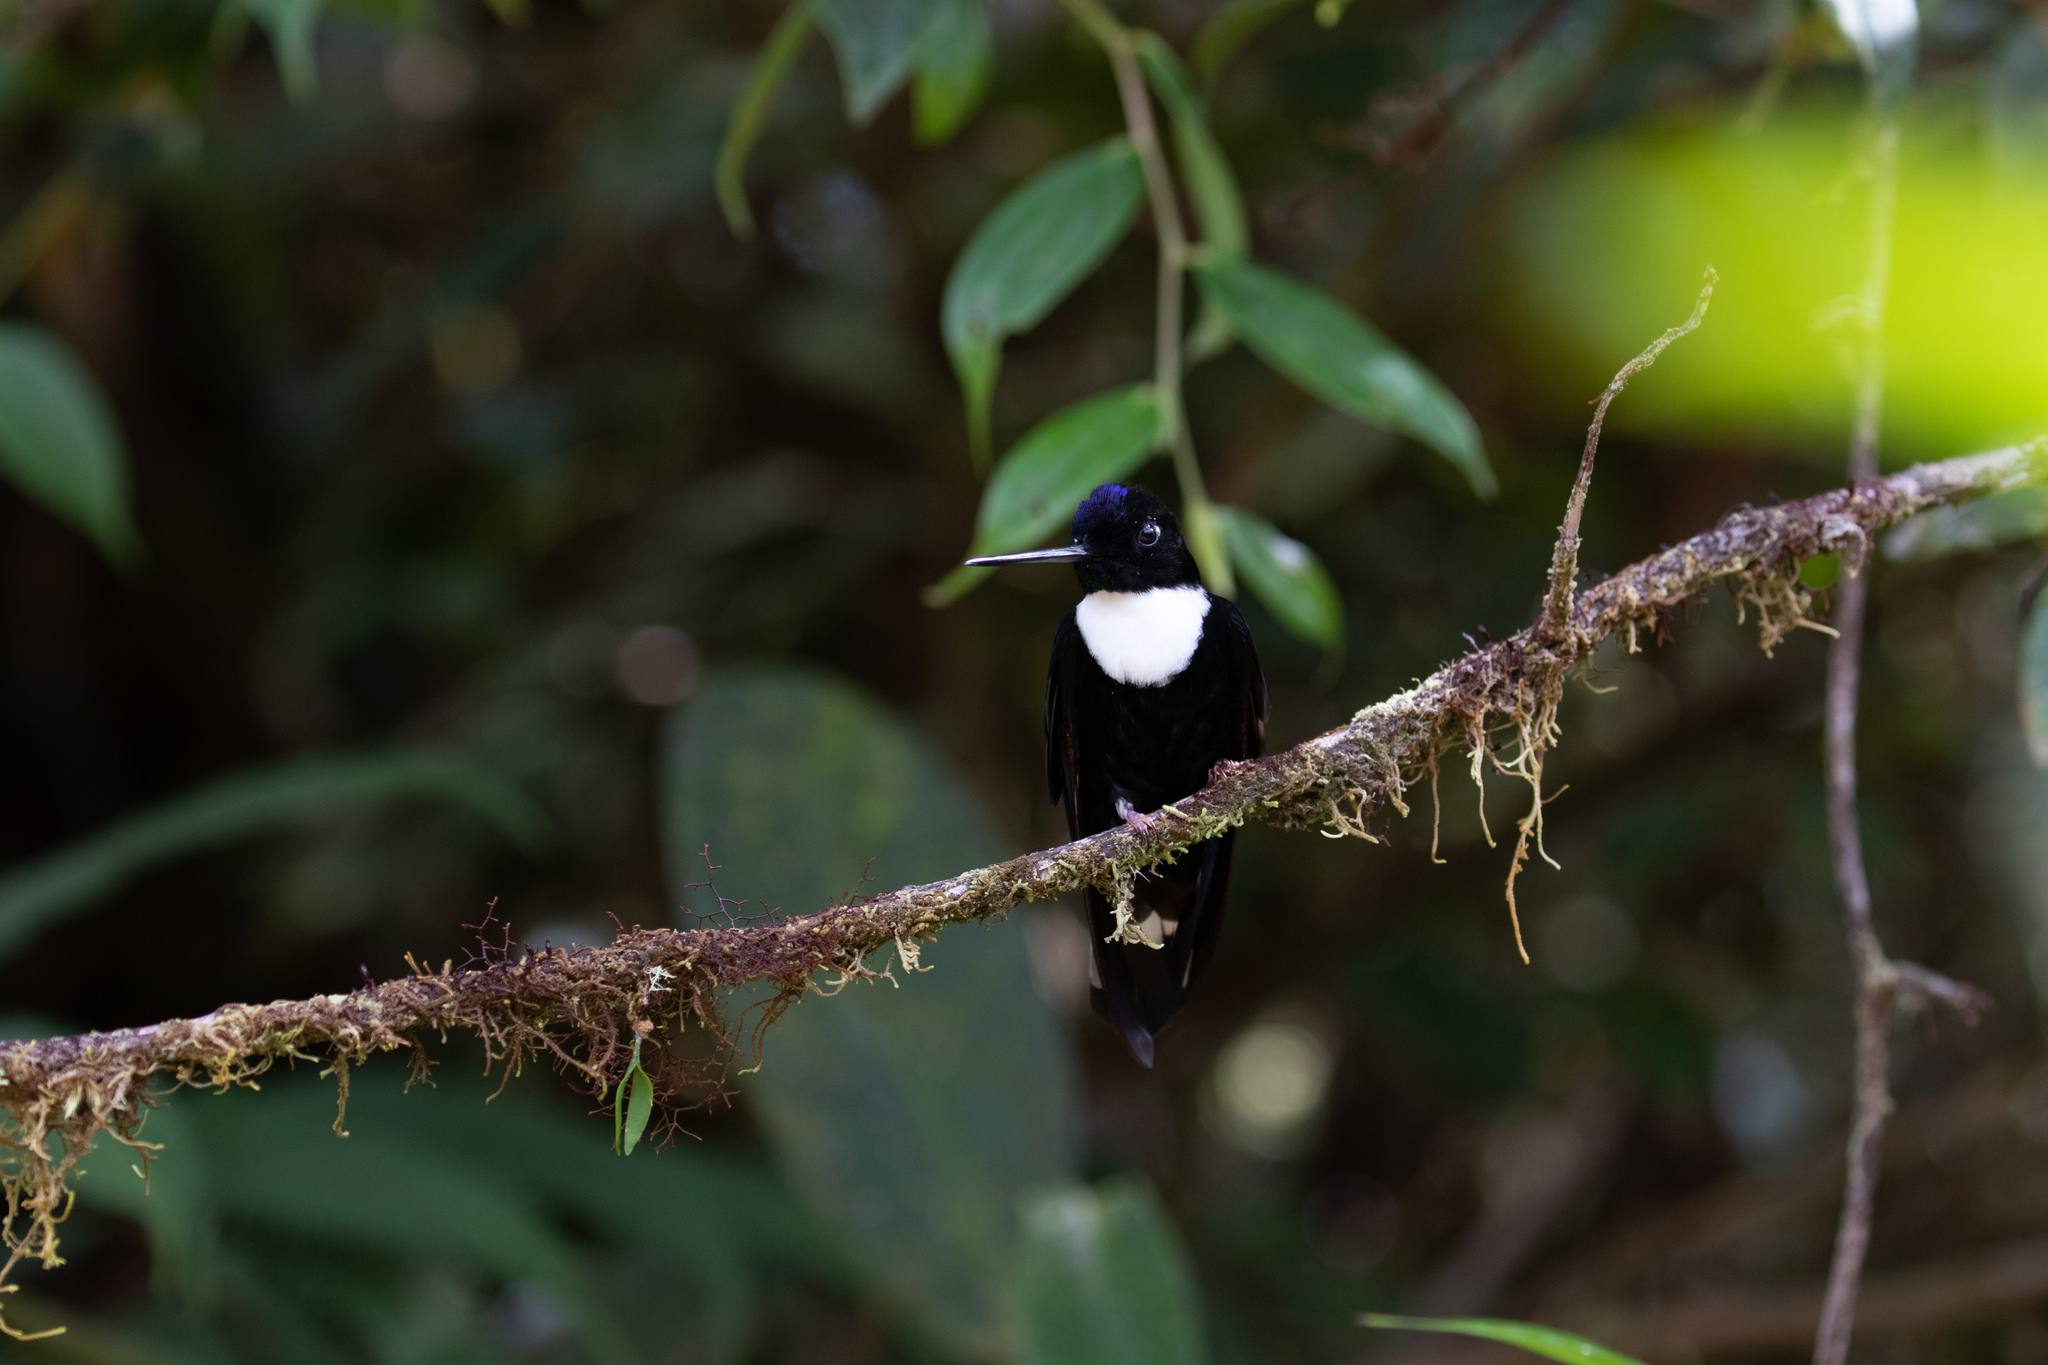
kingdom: Animalia
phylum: Chordata
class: Aves
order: Apodiformes
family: Trochilidae
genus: Coeligena
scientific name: Coeligena torquata
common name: Collared inca
